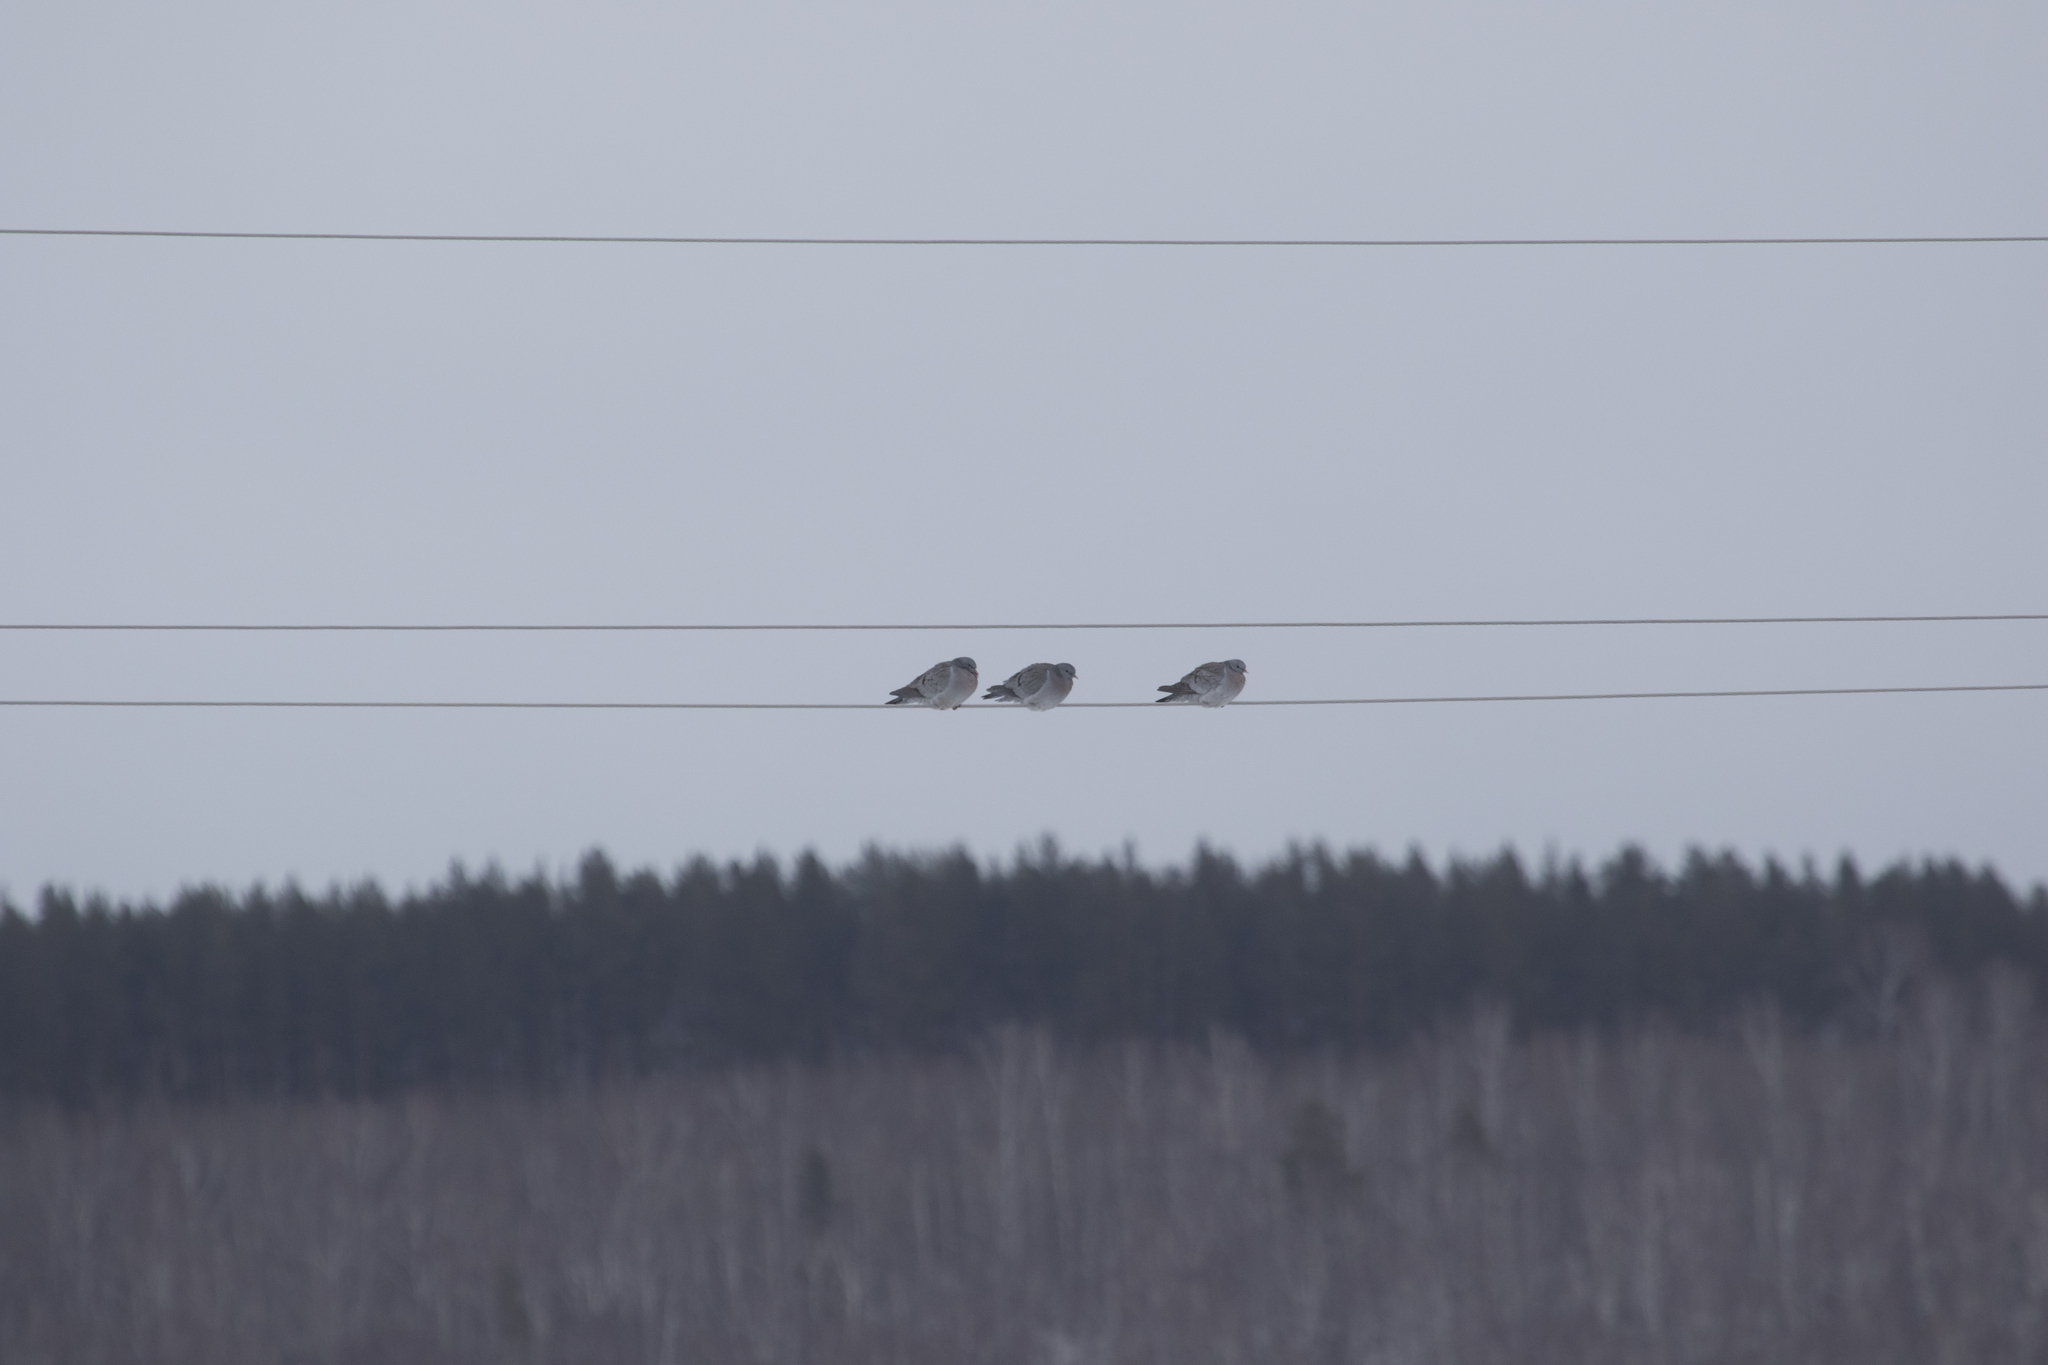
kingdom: Animalia
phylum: Chordata
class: Aves
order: Columbiformes
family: Columbidae
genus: Columba
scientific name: Columba oenas
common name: Stock dove
